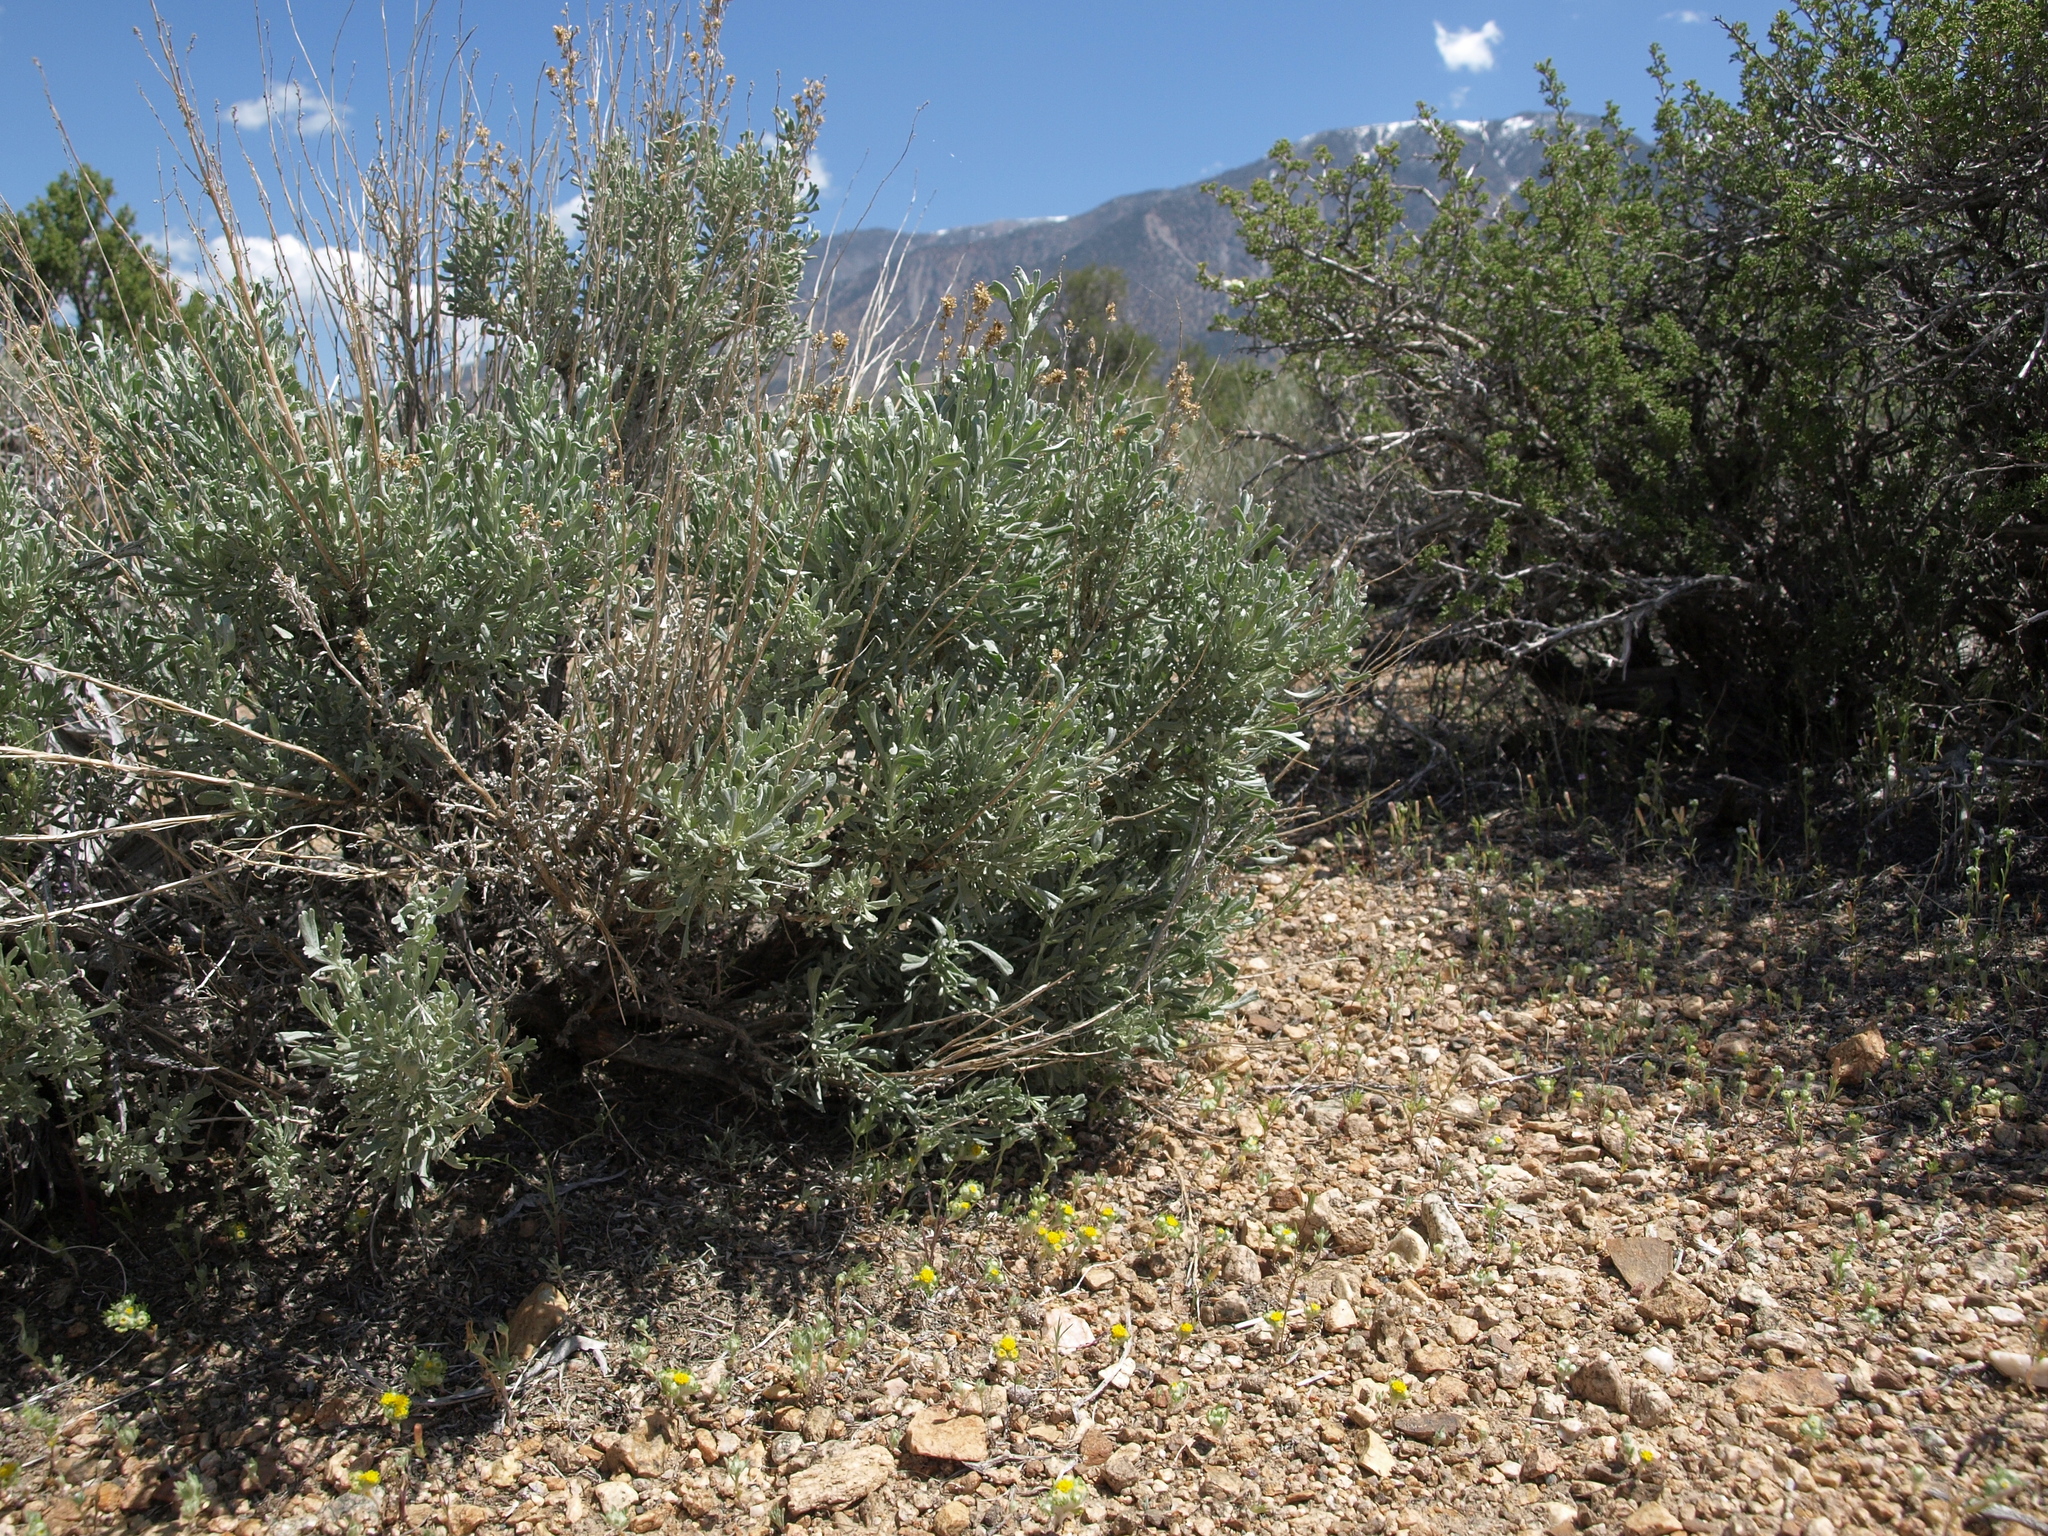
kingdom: Plantae
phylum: Tracheophyta
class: Magnoliopsida
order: Asterales
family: Asteraceae
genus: Eriophyllum
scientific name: Eriophyllum pringlei
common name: Pringle's woolly-sunflower
